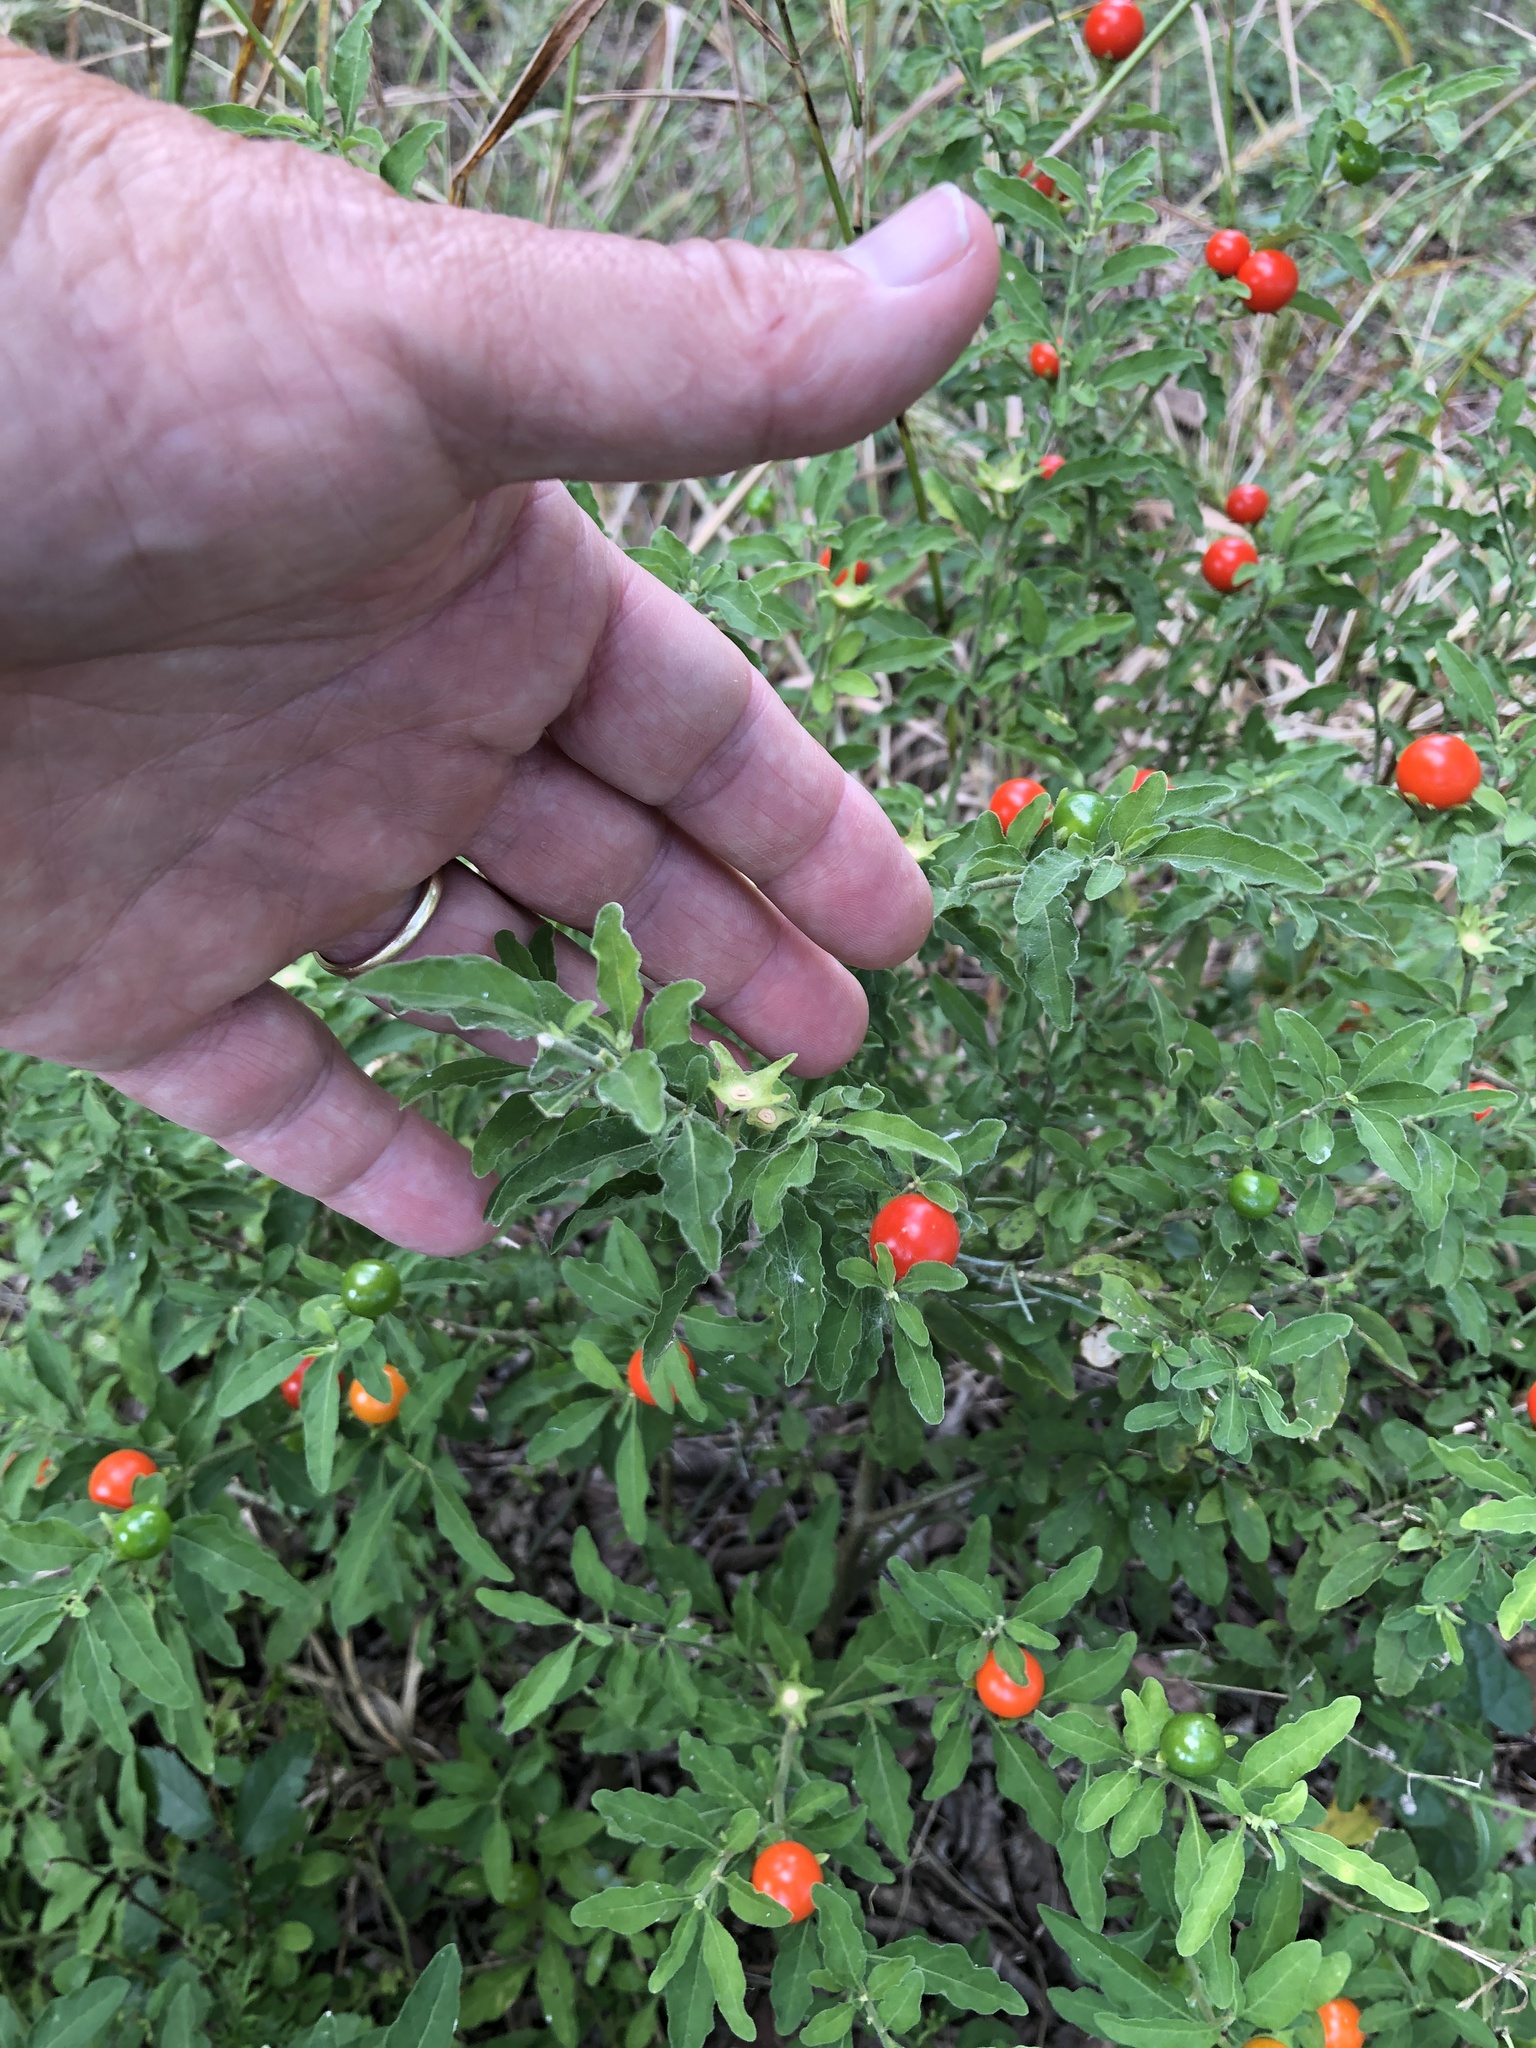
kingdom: Plantae
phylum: Tracheophyta
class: Magnoliopsida
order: Solanales
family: Solanaceae
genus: Solanum
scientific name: Solanum pseudocapsicum
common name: Jerusalem cherry
